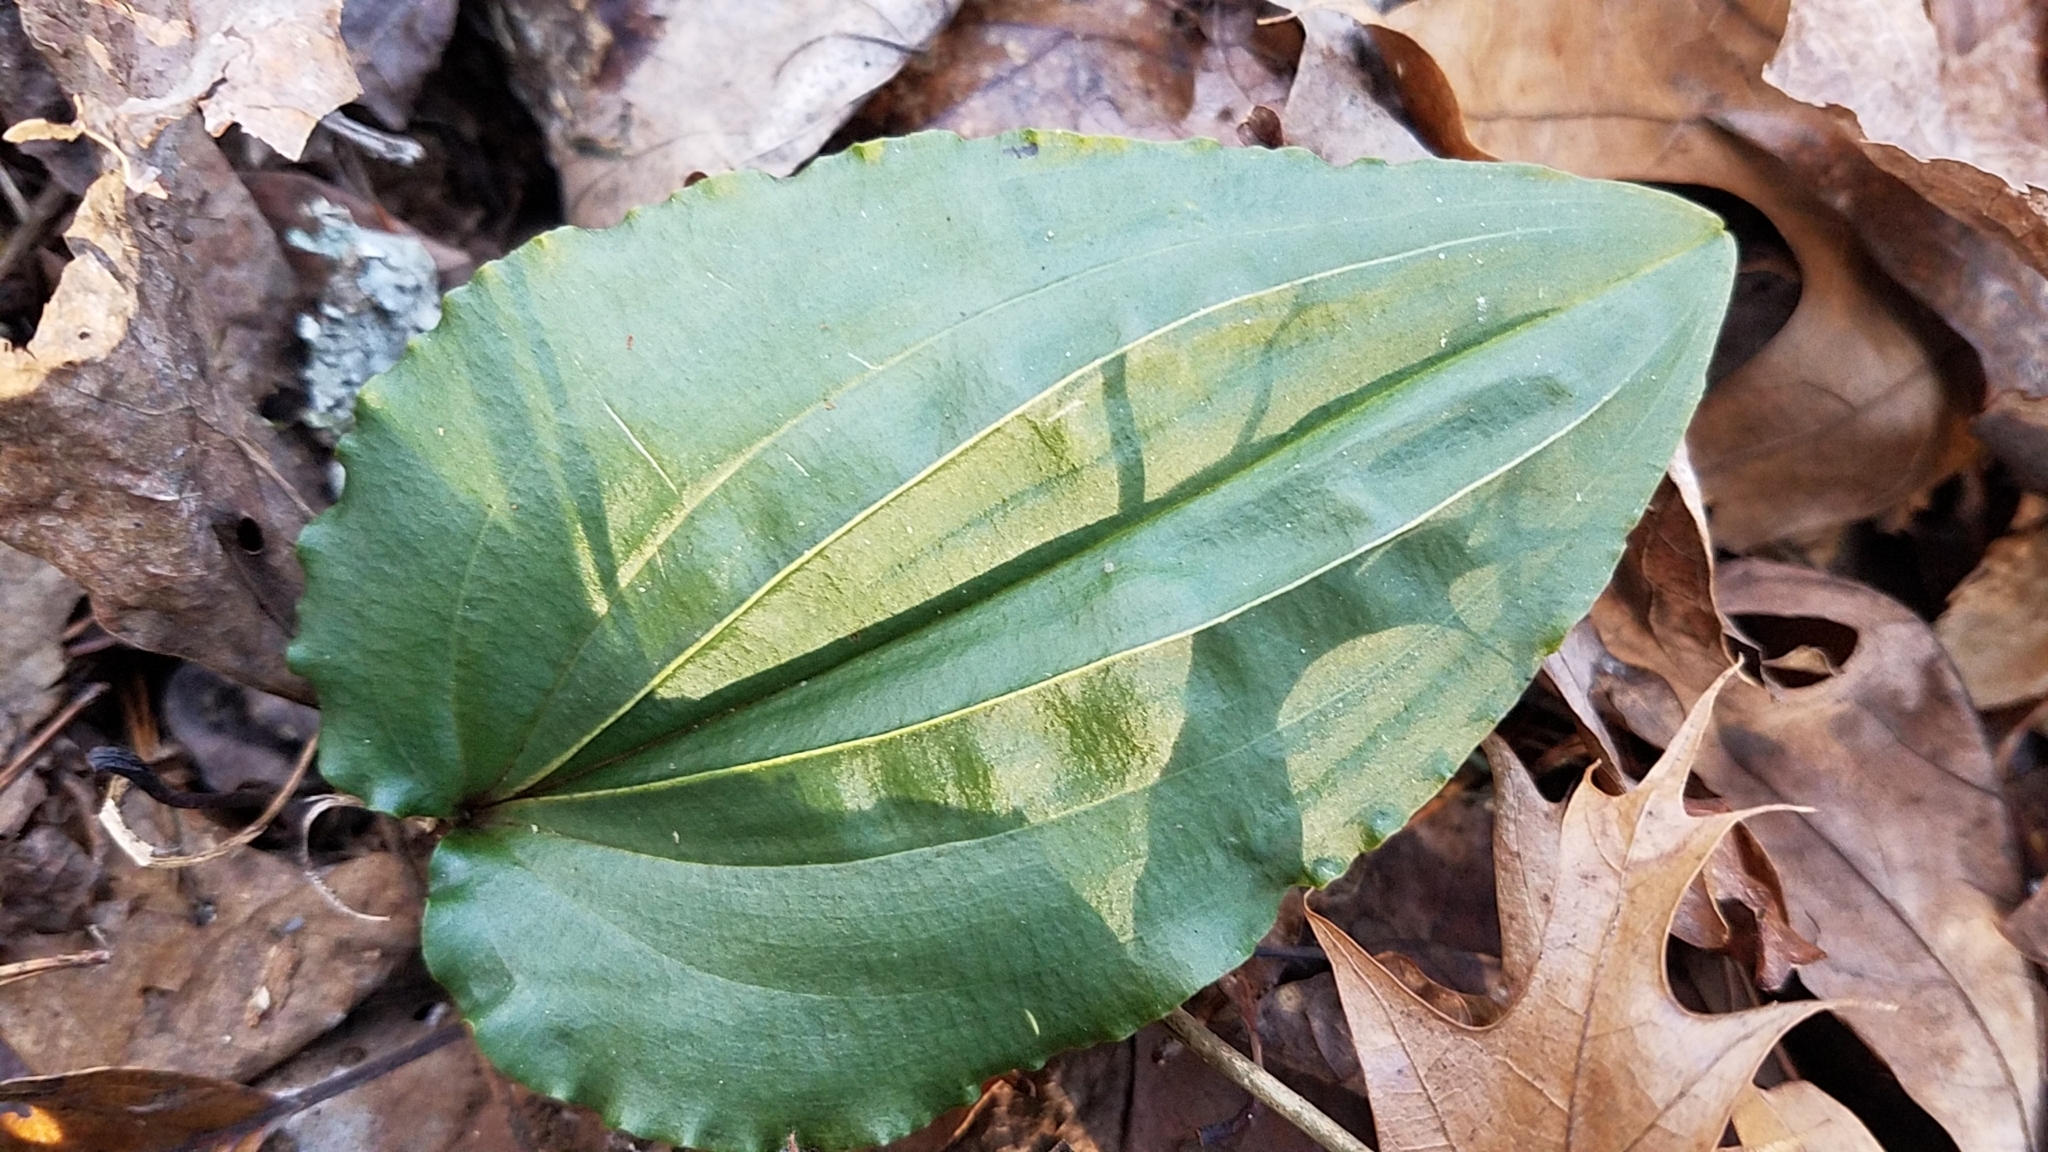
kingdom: Plantae
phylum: Tracheophyta
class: Liliopsida
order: Asparagales
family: Orchidaceae
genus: Tipularia
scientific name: Tipularia discolor
